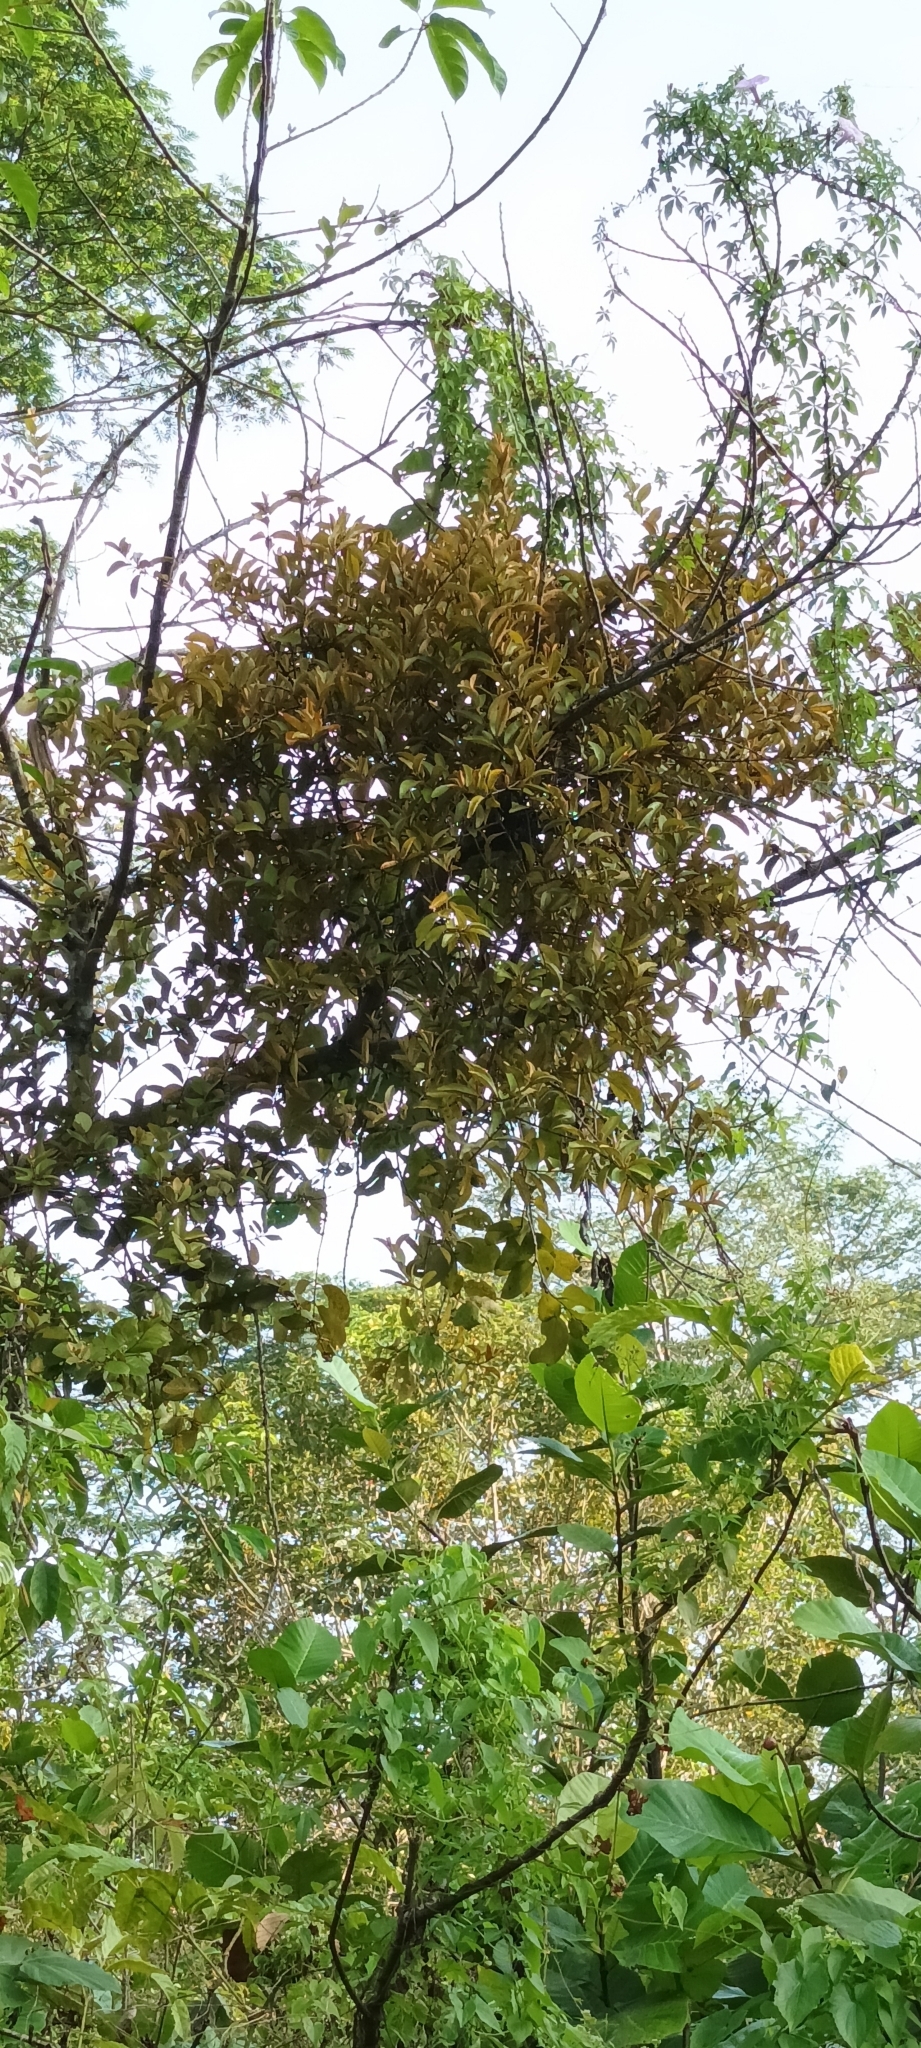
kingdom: Plantae
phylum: Tracheophyta
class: Magnoliopsida
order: Santalales
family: Loranthaceae
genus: Scurrula
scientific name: Scurrula ferruginea
